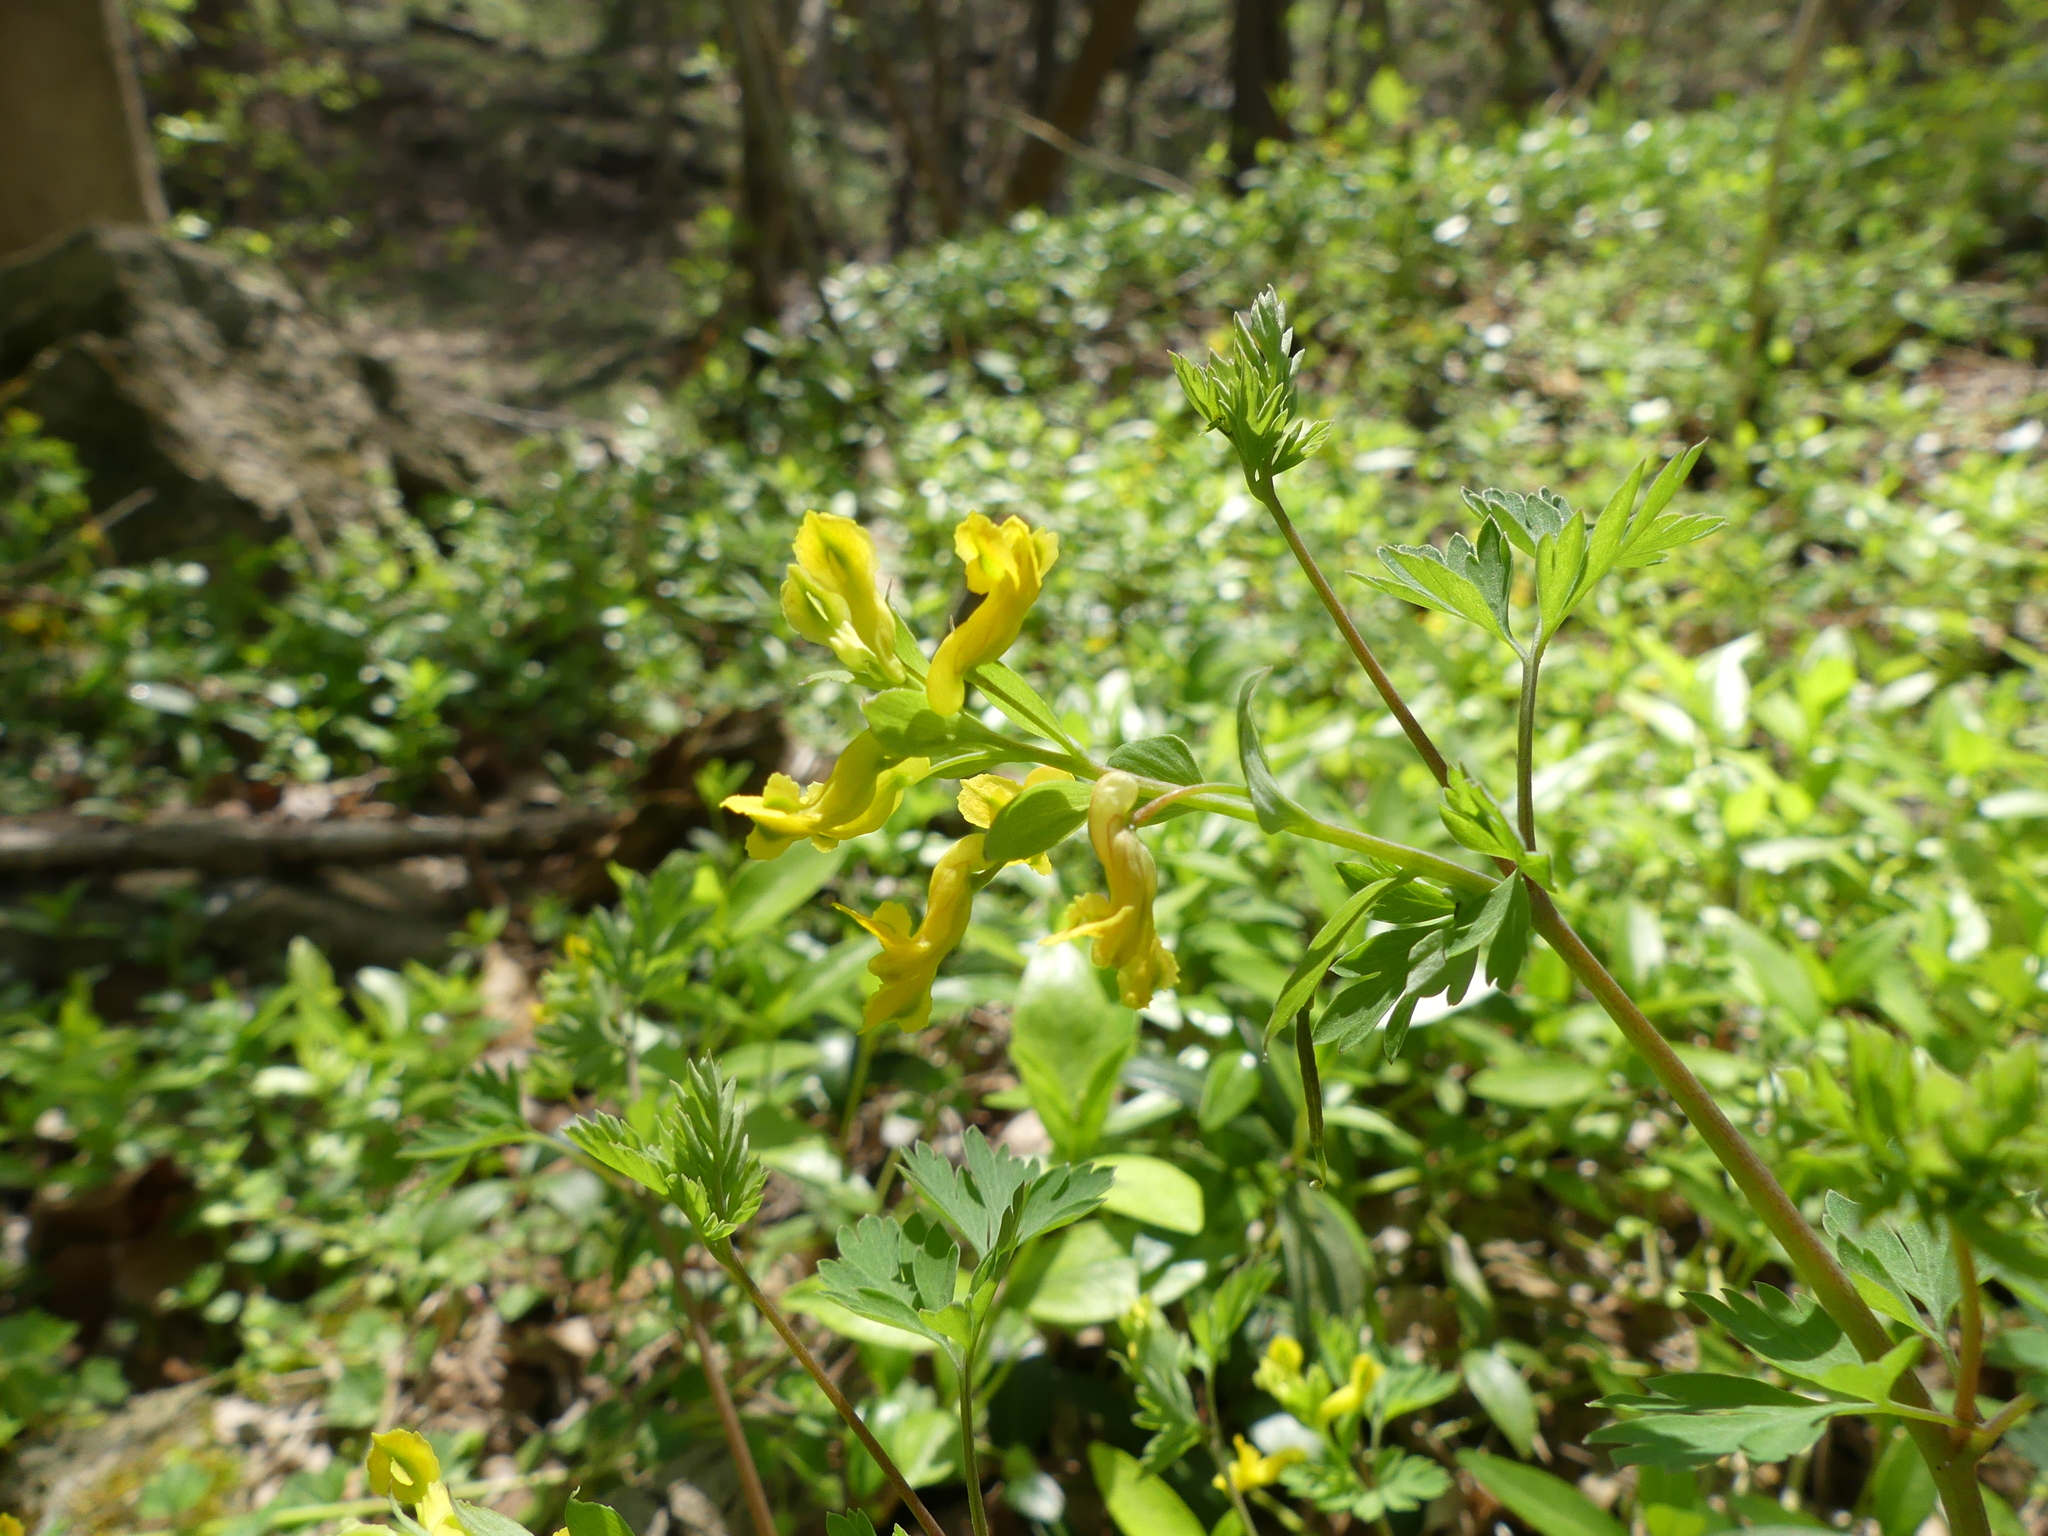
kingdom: Plantae
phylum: Tracheophyta
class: Magnoliopsida
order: Ranunculales
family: Papaveraceae
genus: Corydalis
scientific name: Corydalis flavula
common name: Yellow corydalis
